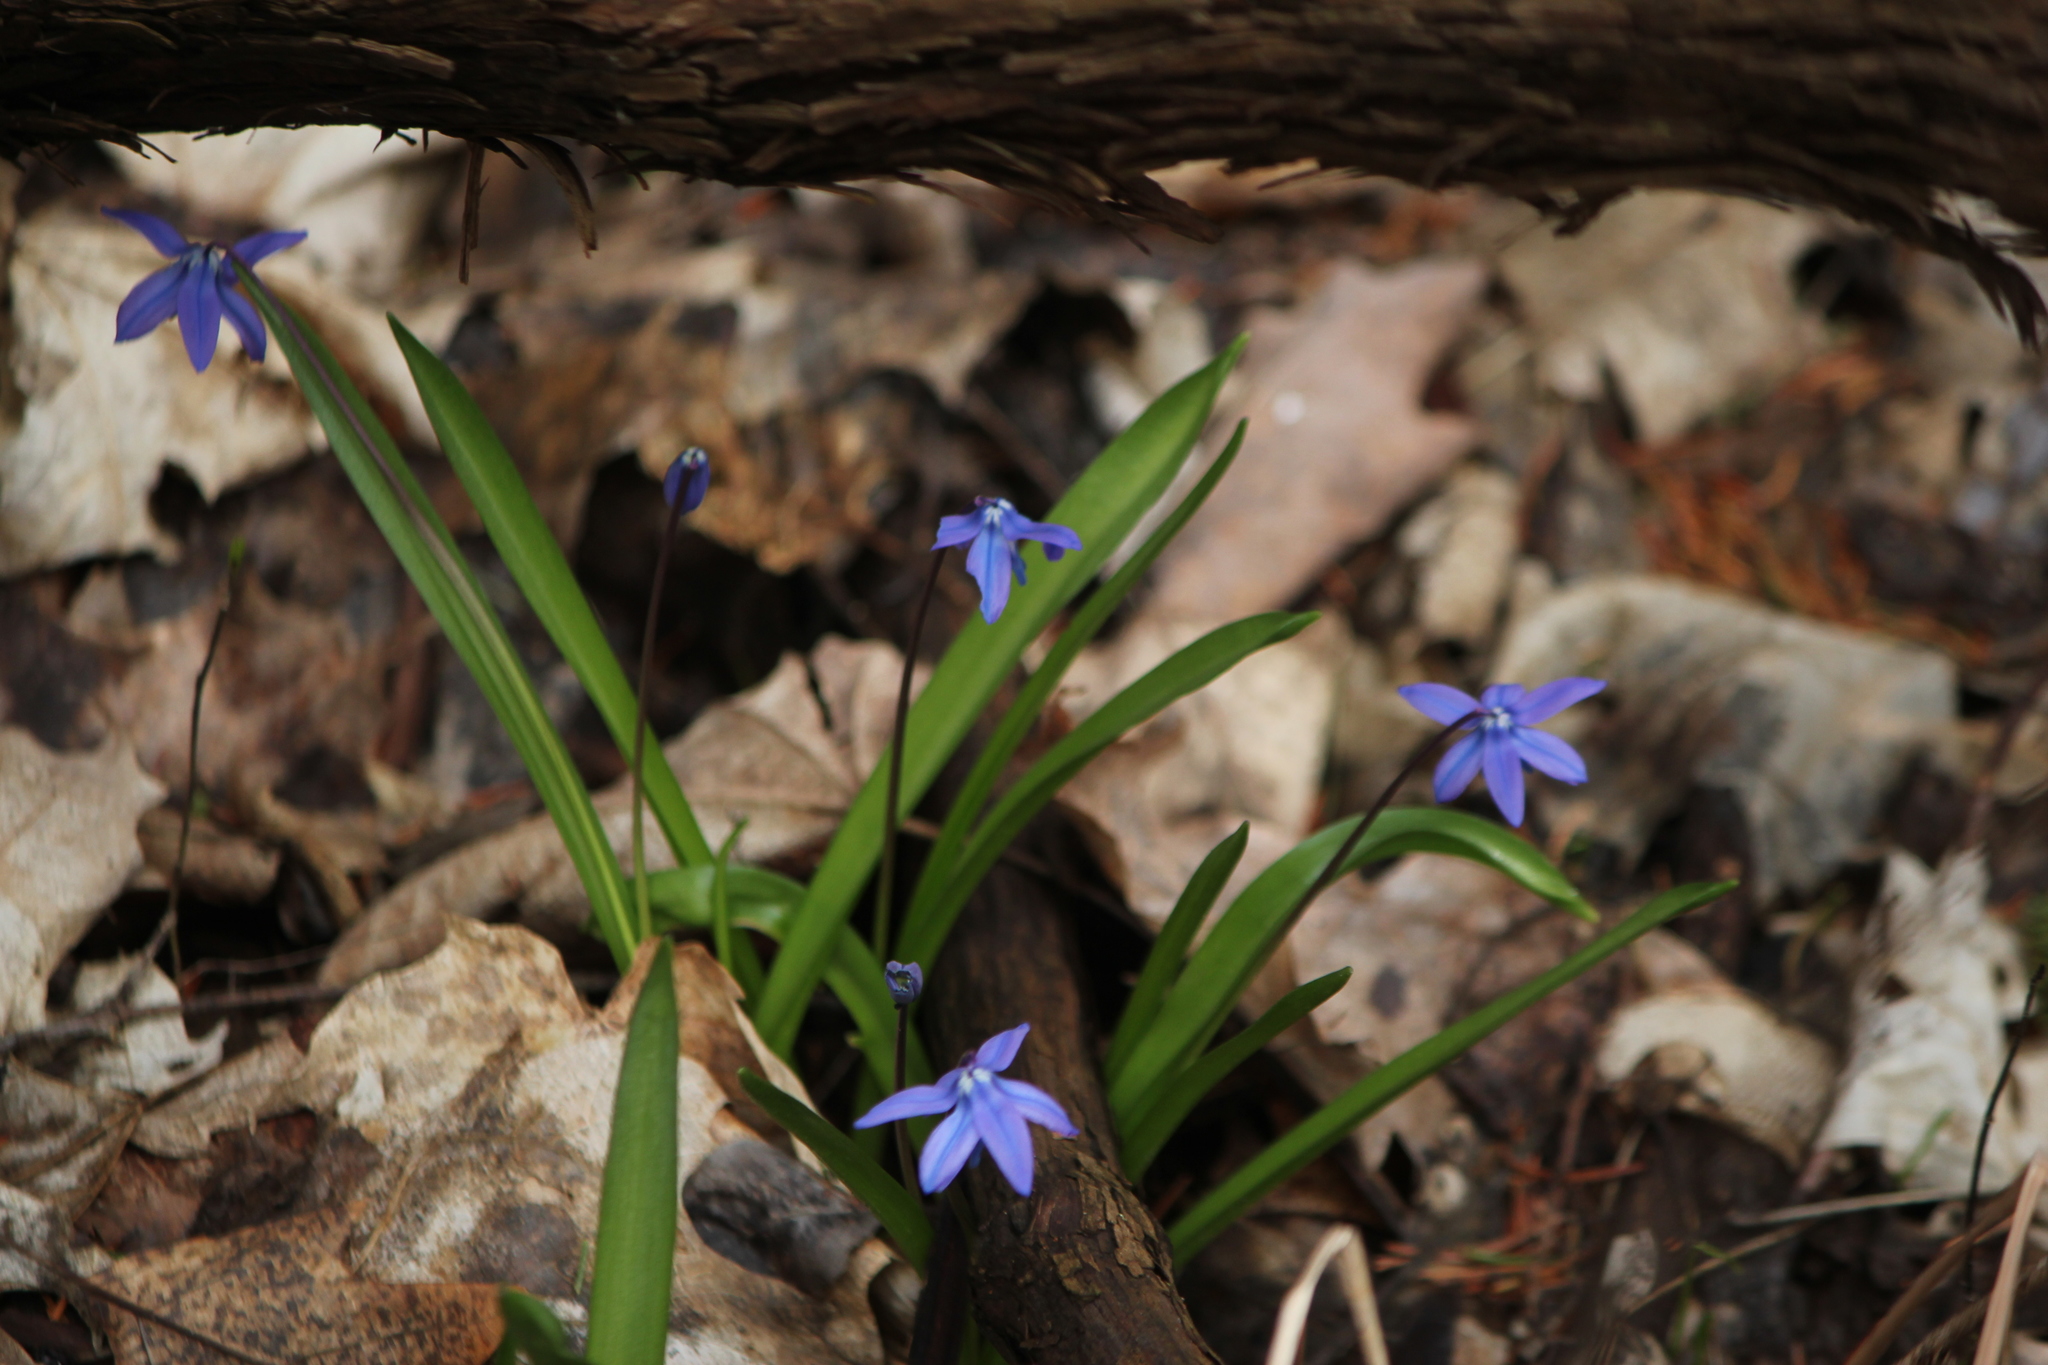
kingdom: Plantae
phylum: Tracheophyta
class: Liliopsida
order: Asparagales
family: Asparagaceae
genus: Scilla
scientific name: Scilla siberica
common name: Siberian squill
